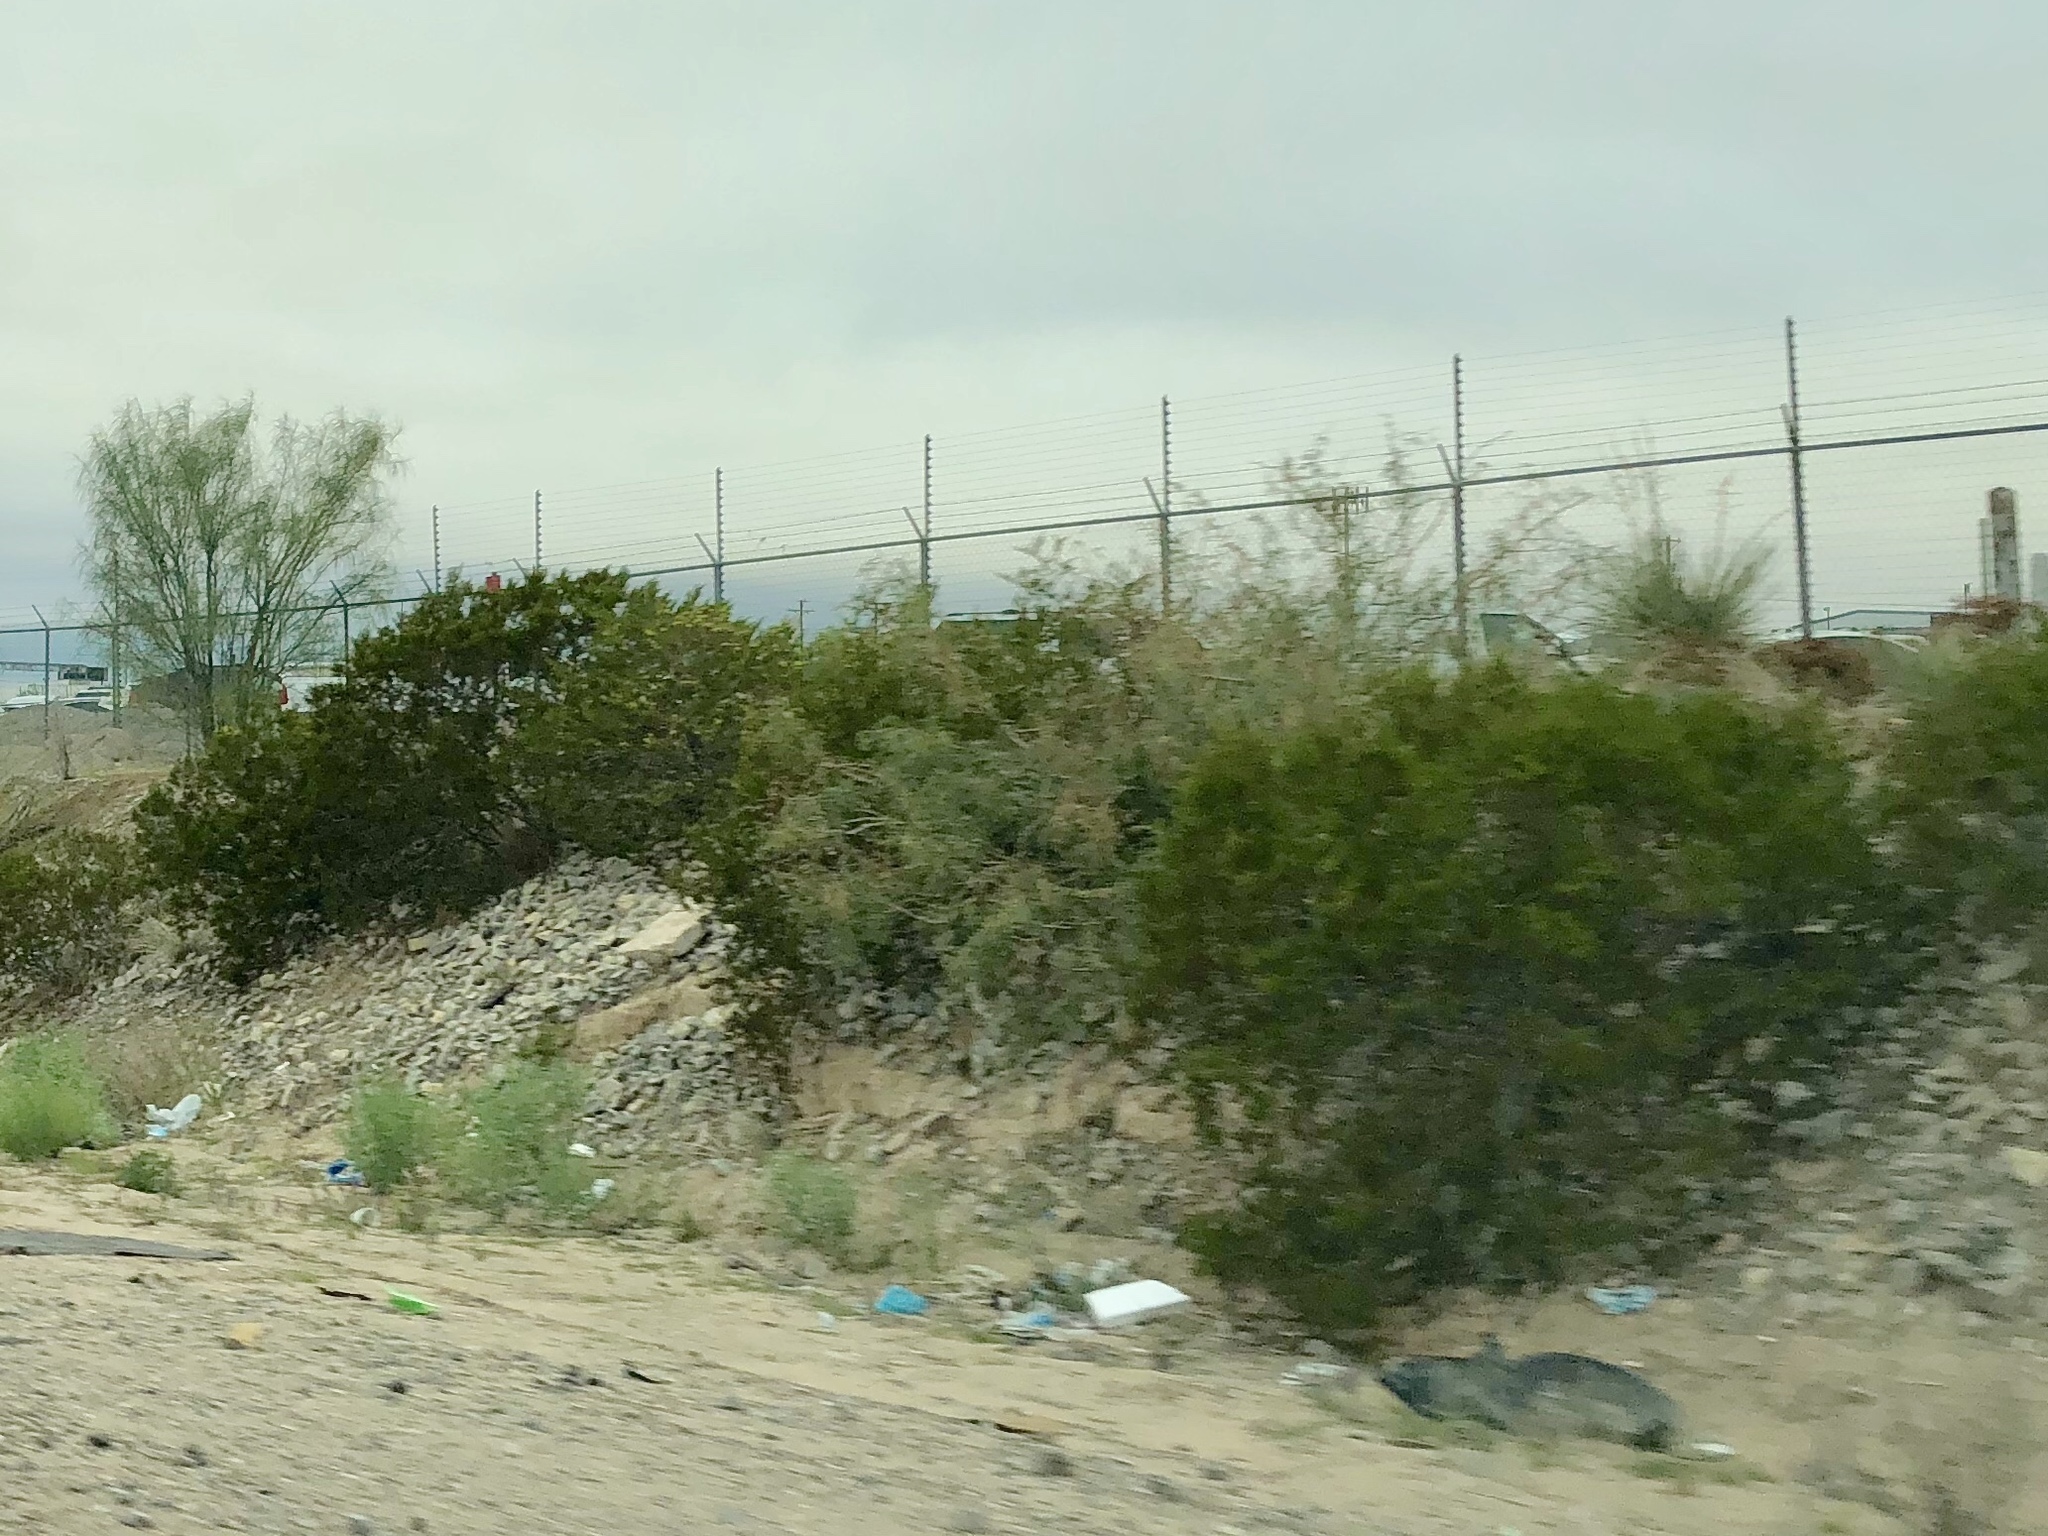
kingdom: Plantae
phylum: Tracheophyta
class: Magnoliopsida
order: Zygophyllales
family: Zygophyllaceae
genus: Larrea
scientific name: Larrea tridentata
